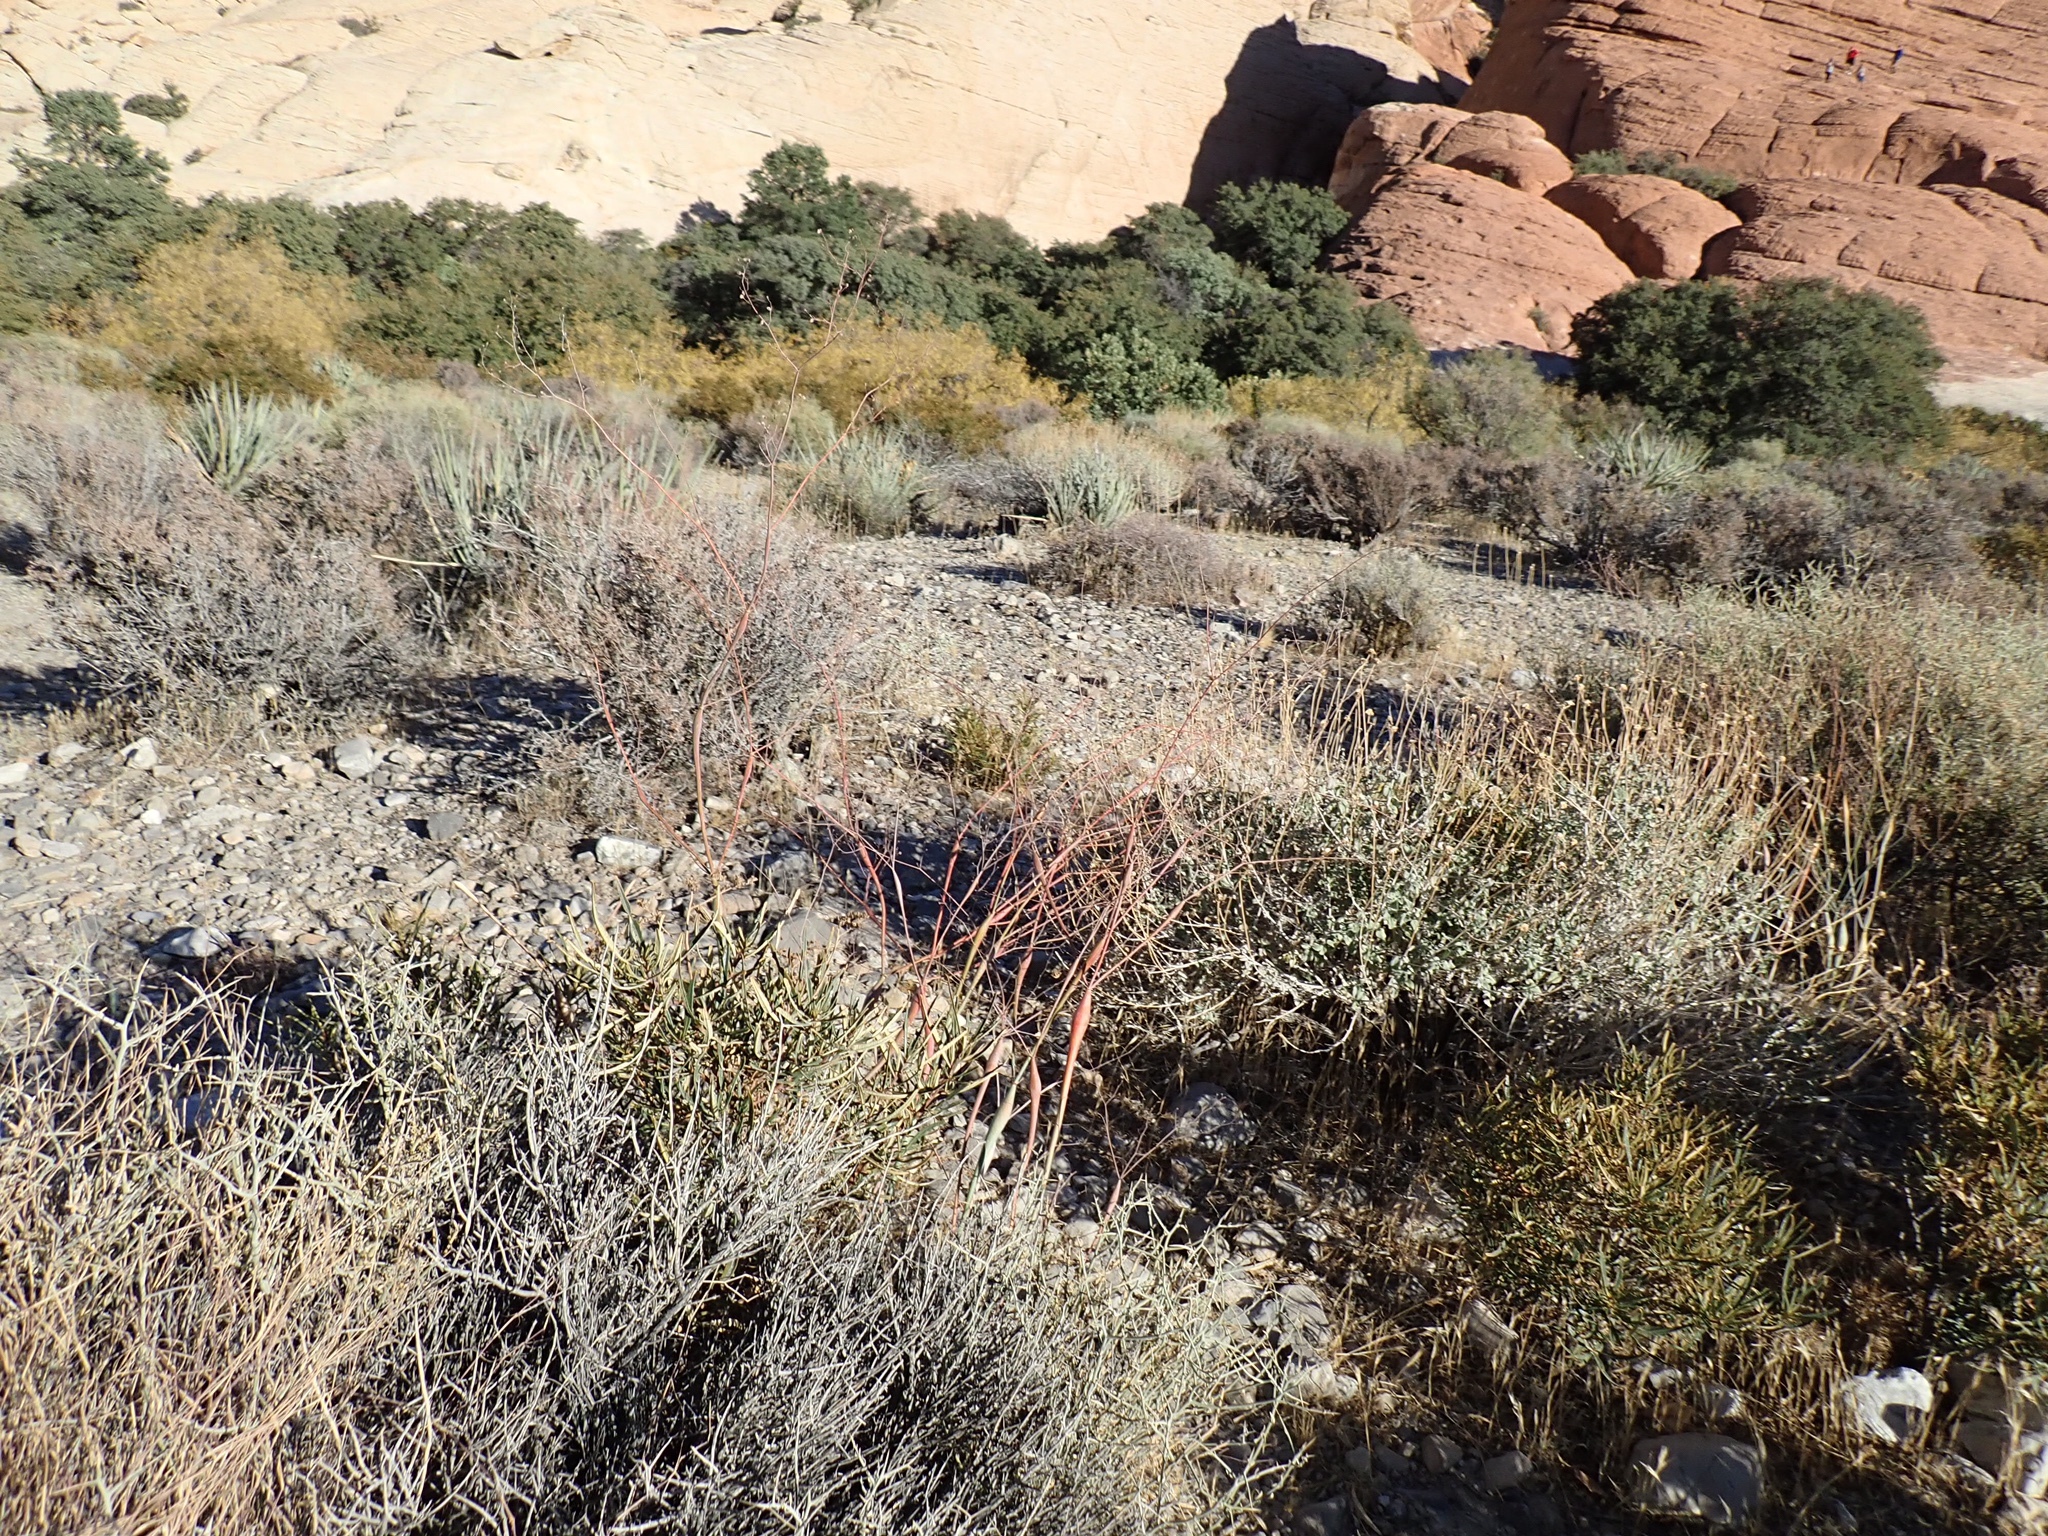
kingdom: Plantae
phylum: Tracheophyta
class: Magnoliopsida
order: Caryophyllales
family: Polygonaceae
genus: Eriogonum
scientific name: Eriogonum inflatum
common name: Desert trumpet
